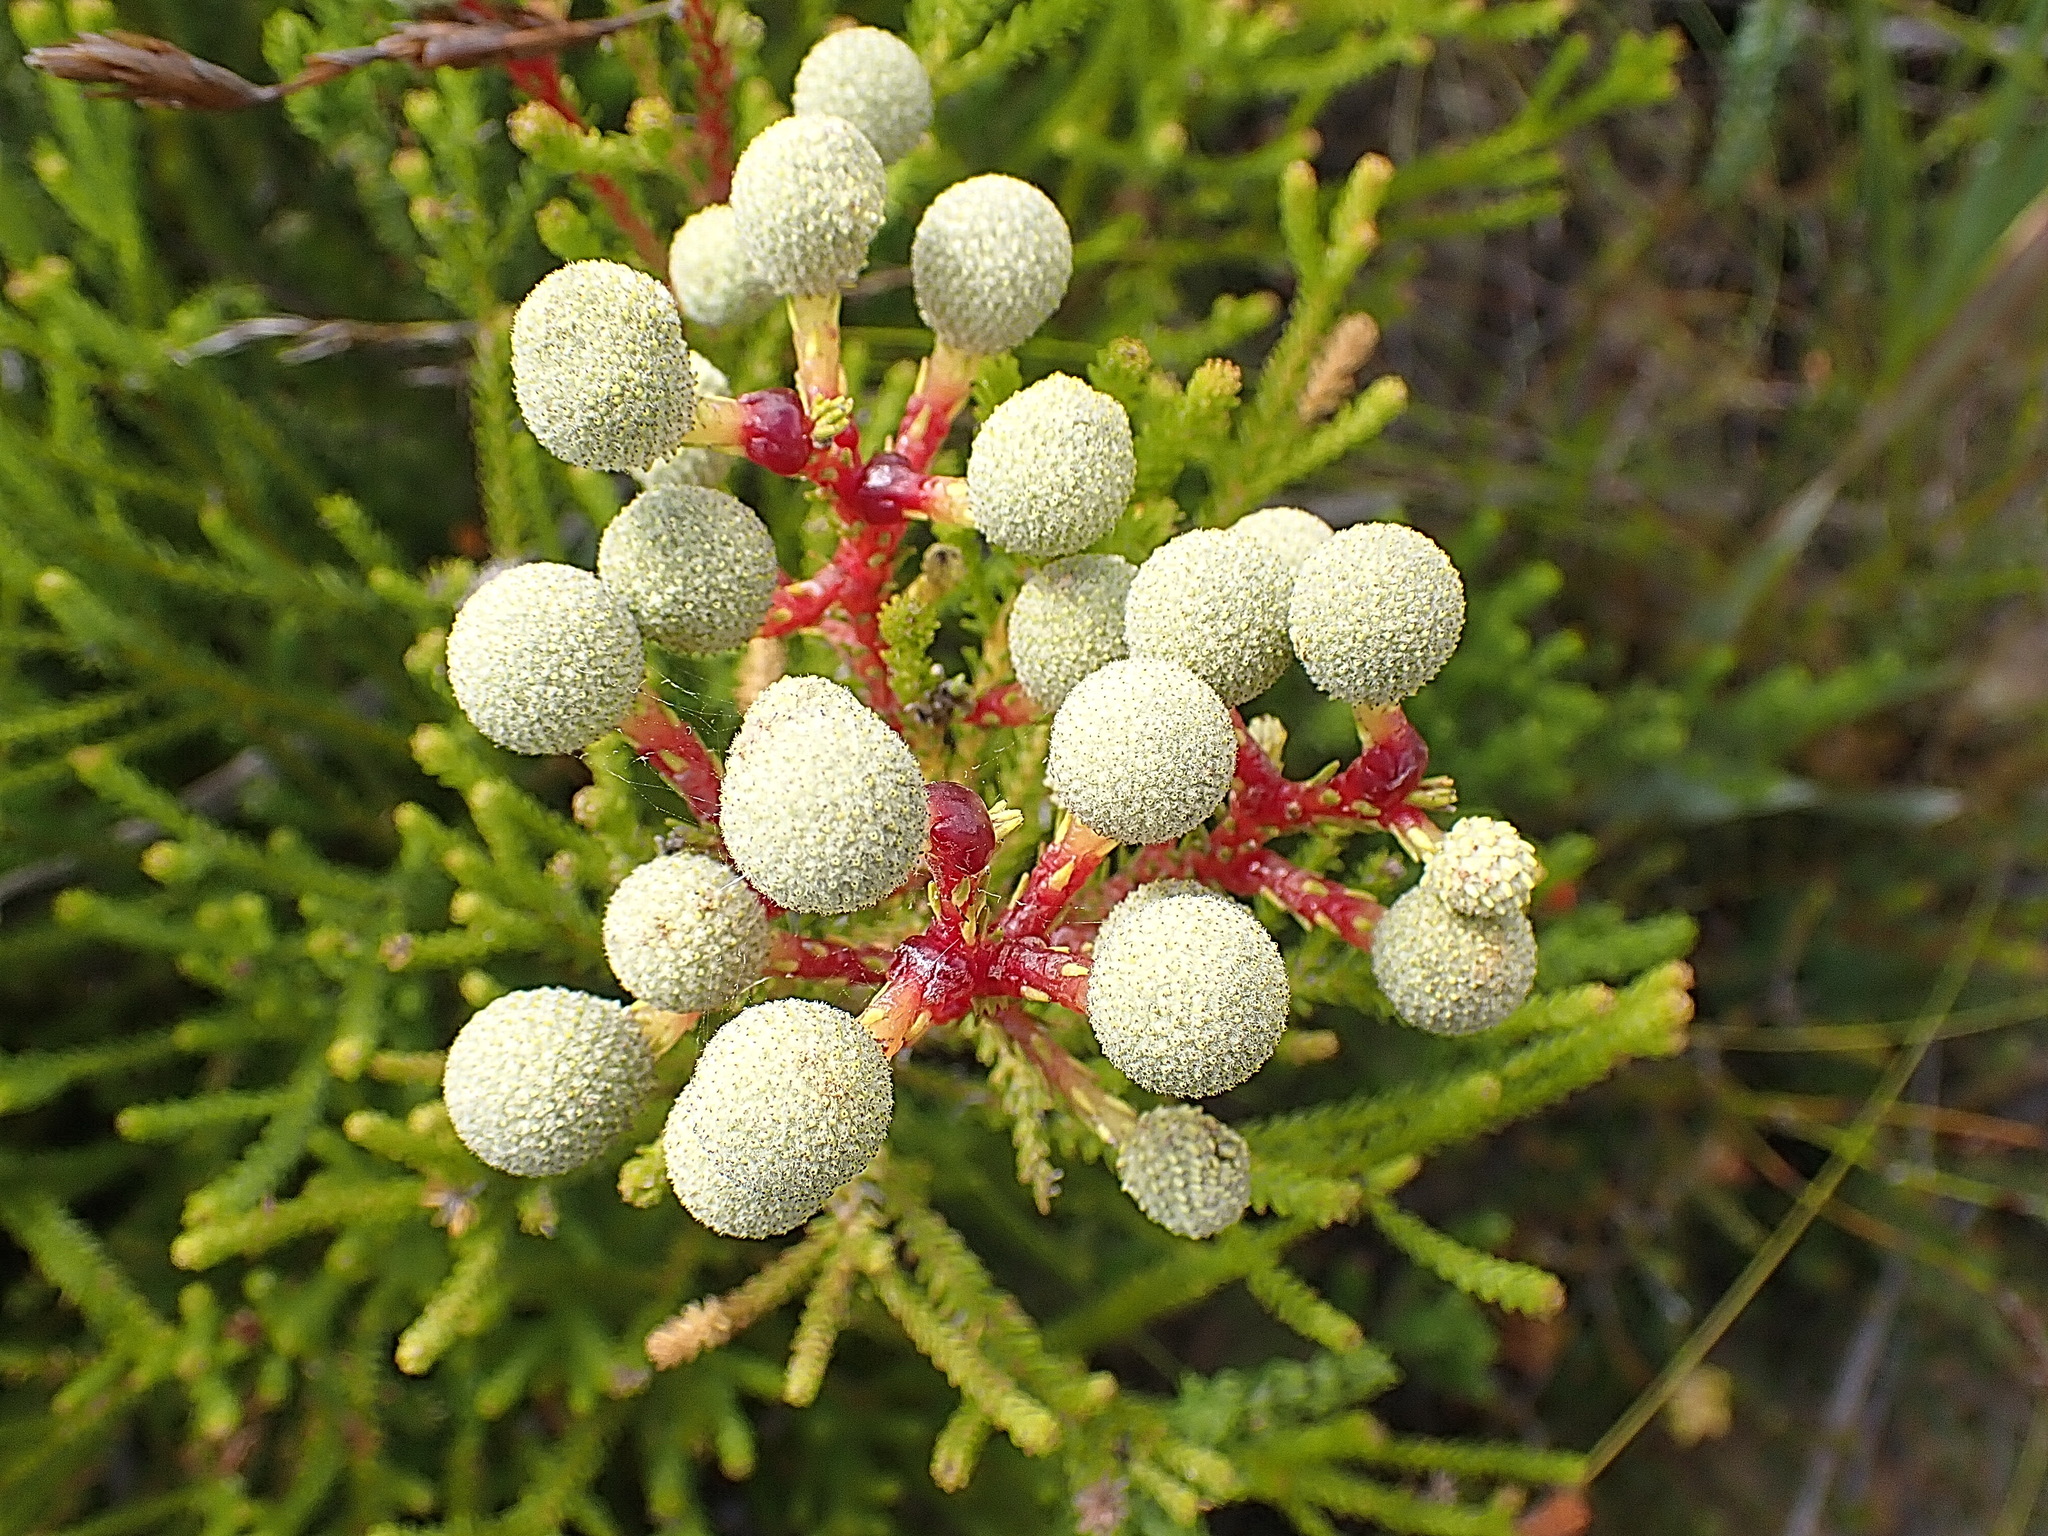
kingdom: Plantae
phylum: Tracheophyta
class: Magnoliopsida
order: Bruniales
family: Bruniaceae
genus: Berzelia
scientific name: Berzelia intermedia
